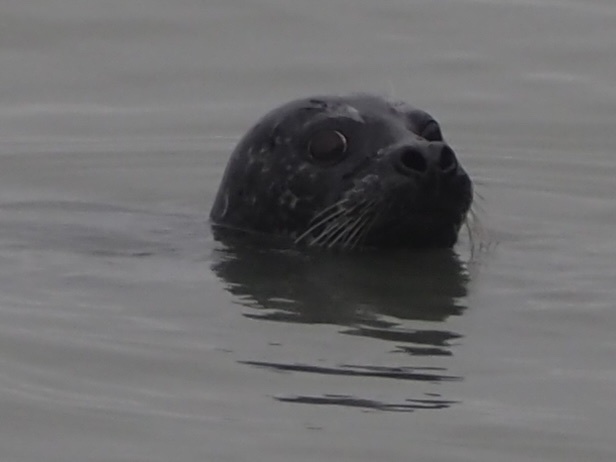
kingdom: Animalia
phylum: Chordata
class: Mammalia
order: Carnivora
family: Phocidae
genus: Phoca
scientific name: Phoca vitulina
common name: Harbor seal
